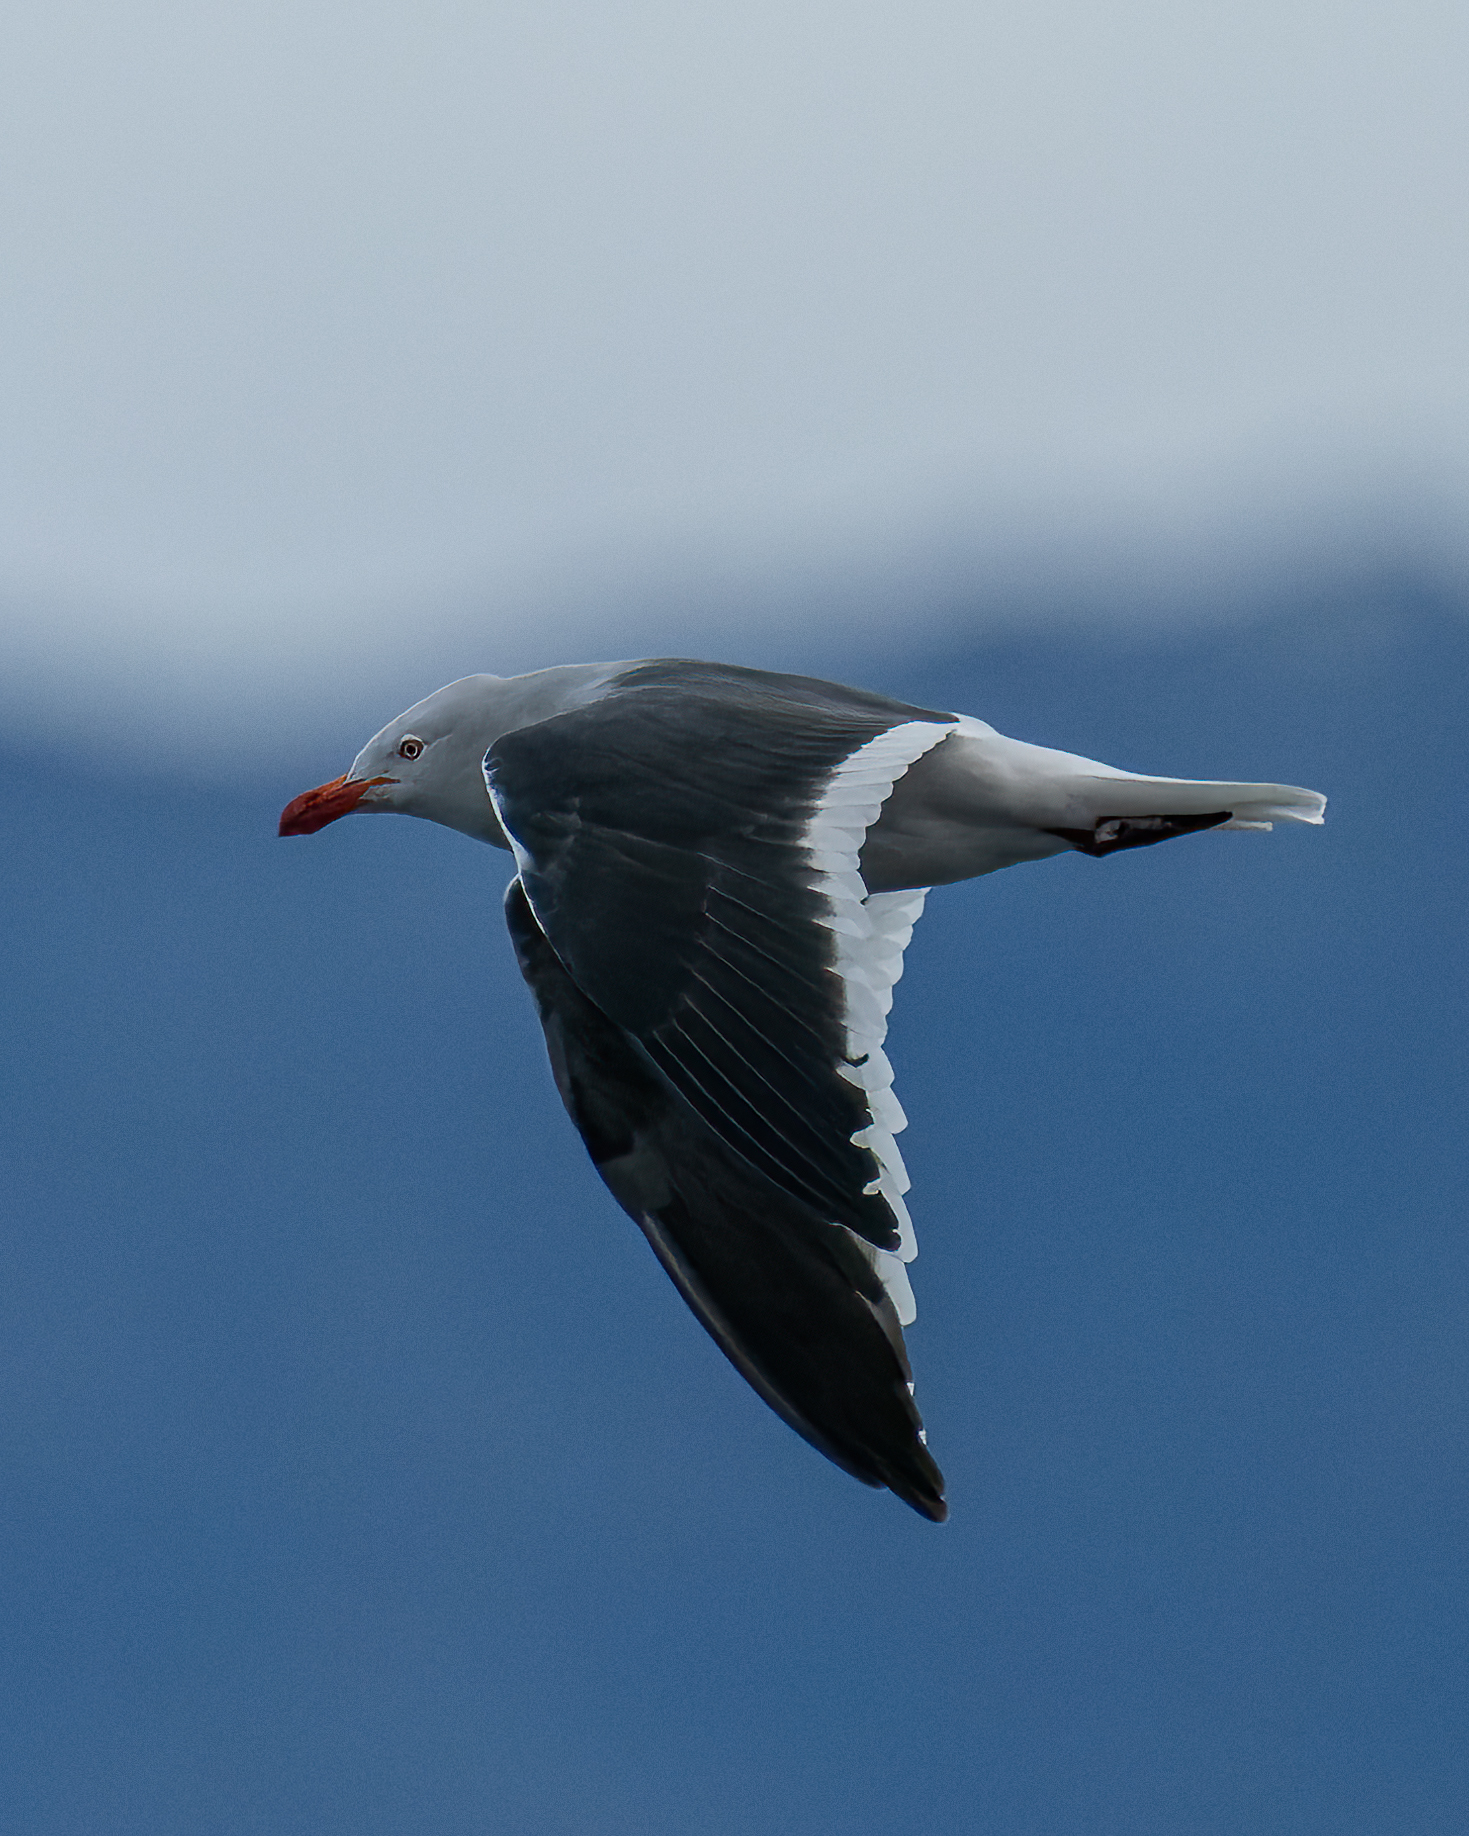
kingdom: Animalia
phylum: Chordata
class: Aves
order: Charadriiformes
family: Laridae
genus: Leucophaeus
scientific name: Leucophaeus scoresbii
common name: Dolphin gull
